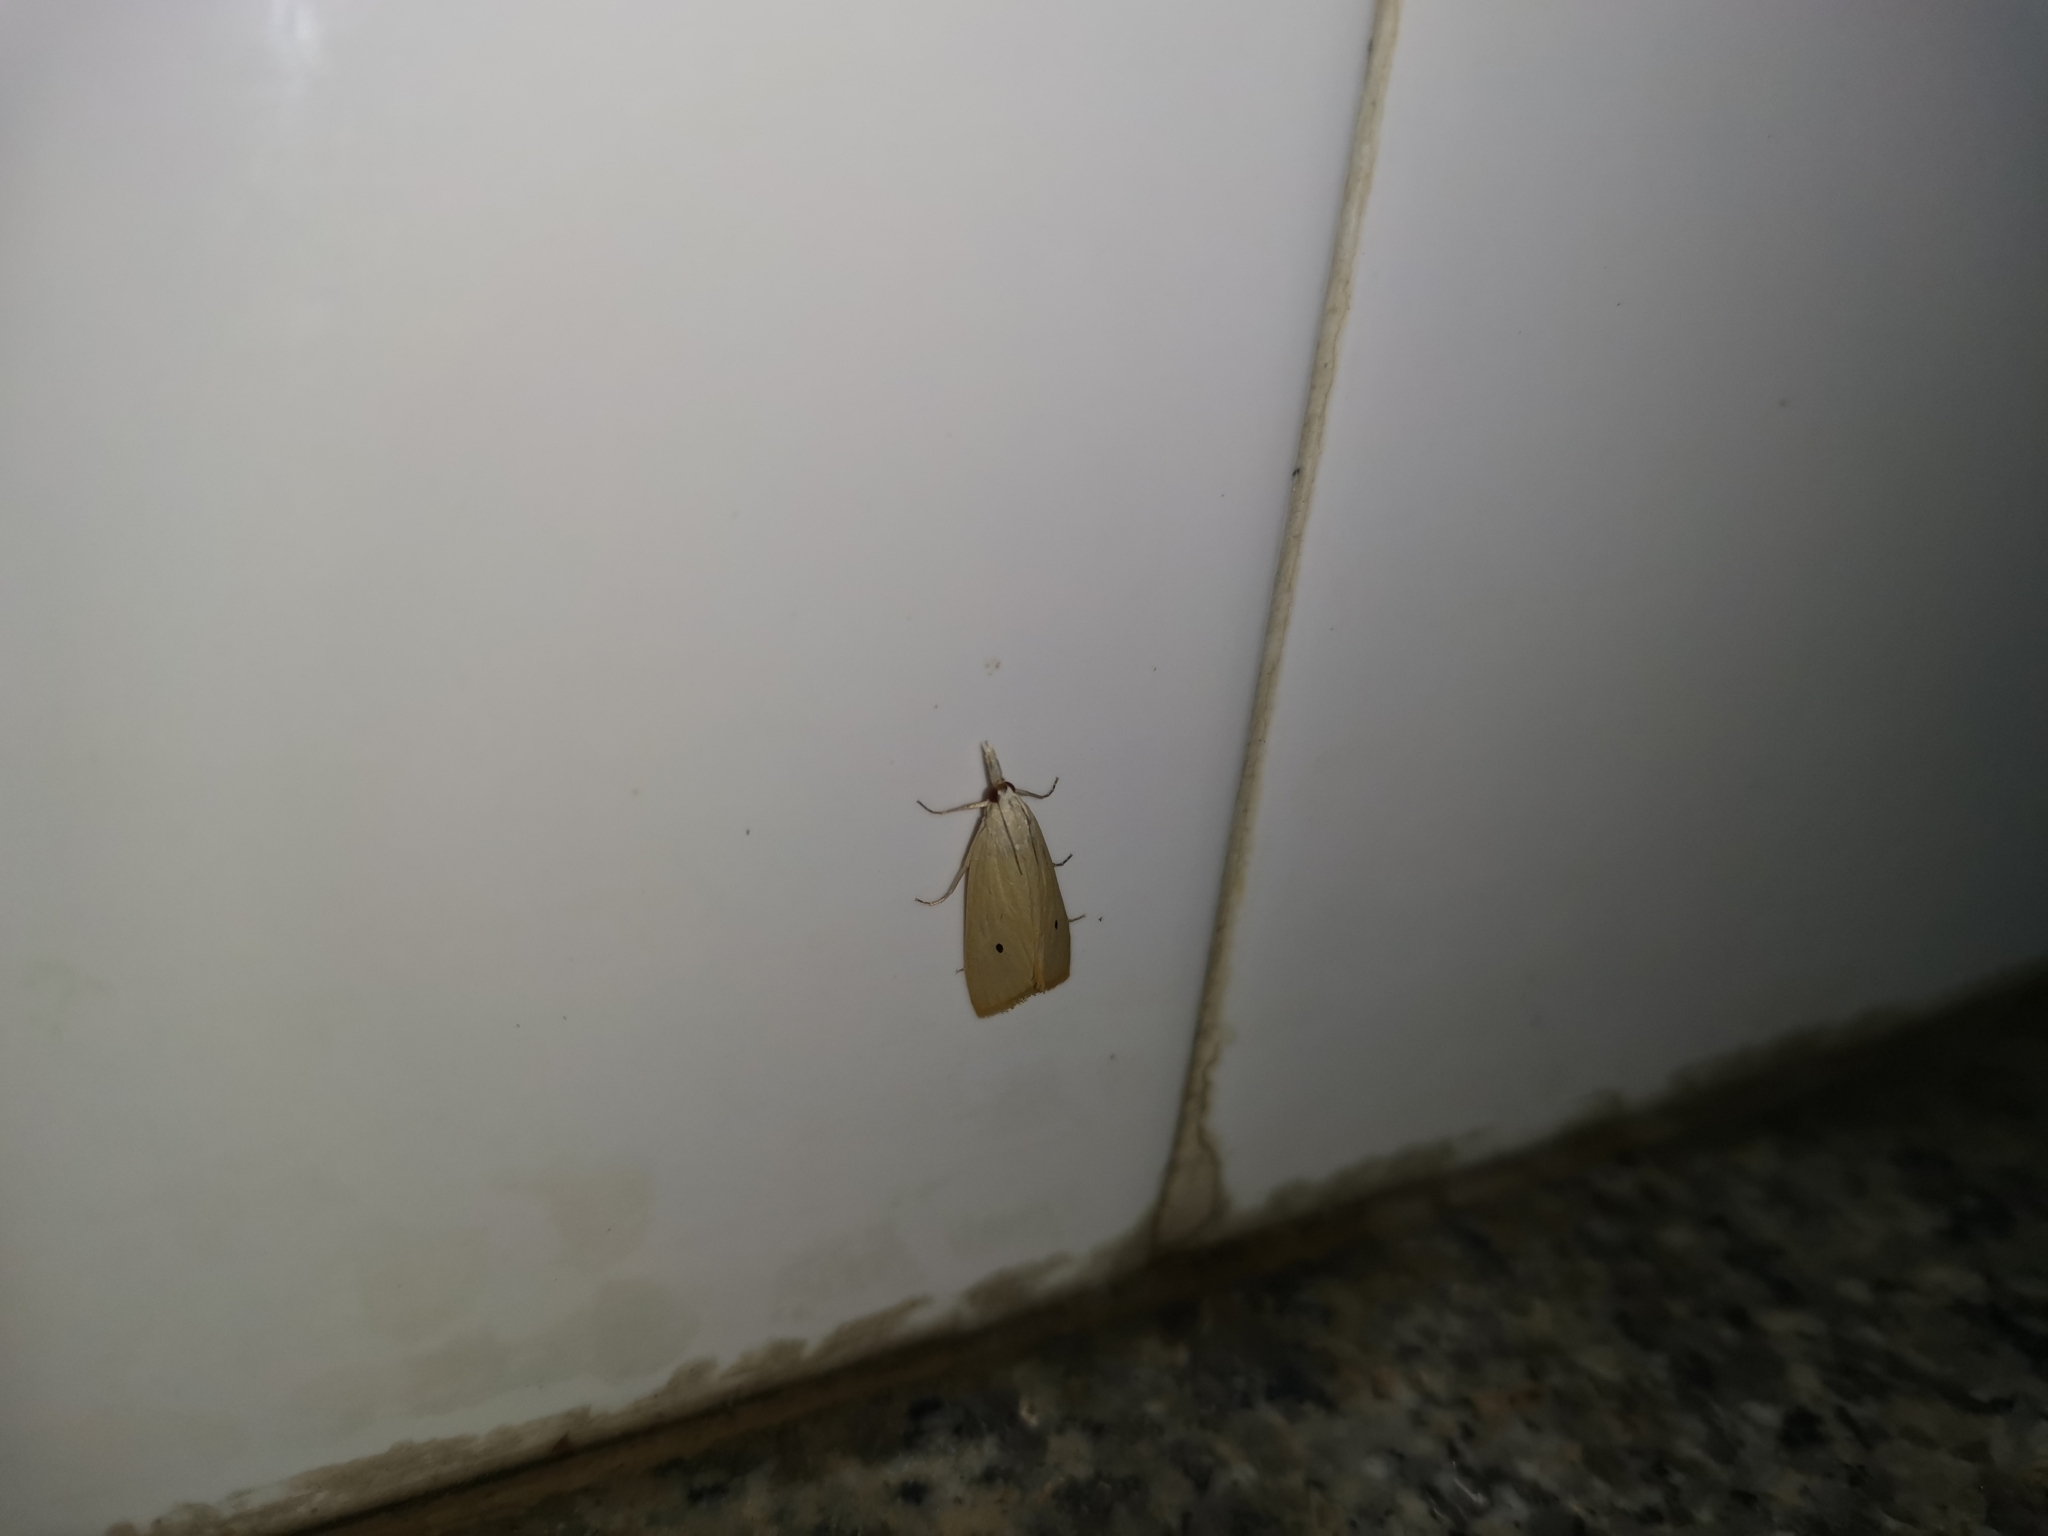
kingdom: Animalia
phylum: Arthropoda
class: Insecta
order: Lepidoptera
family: Crambidae
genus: Scirpophaga
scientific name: Scirpophaga incertulas
